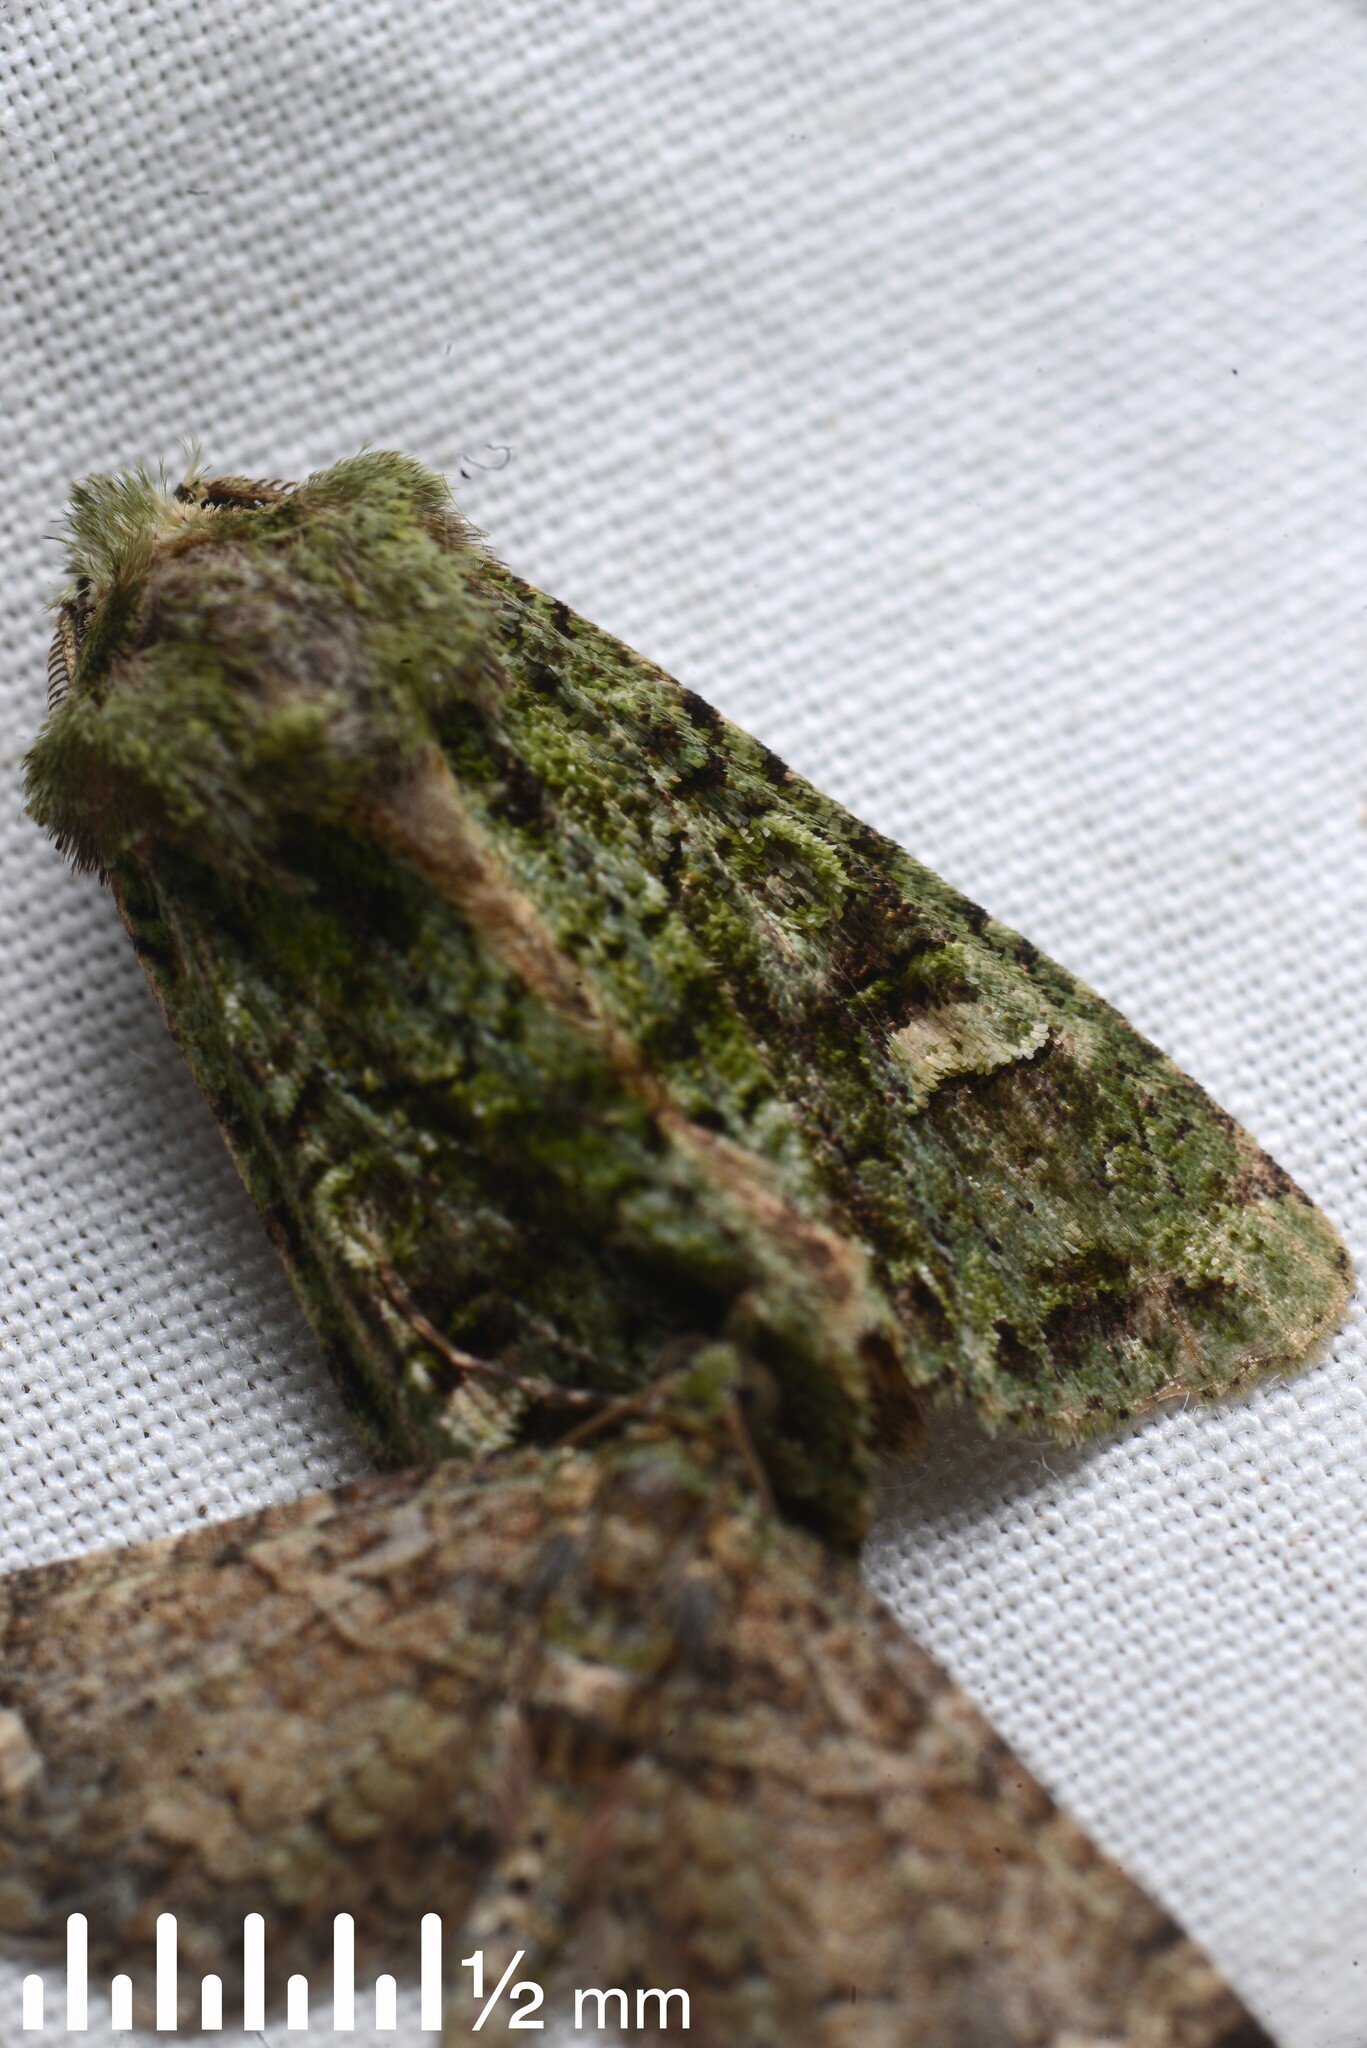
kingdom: Animalia
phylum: Arthropoda
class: Insecta
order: Lepidoptera
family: Noctuidae
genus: Ichneutica
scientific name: Ichneutica
